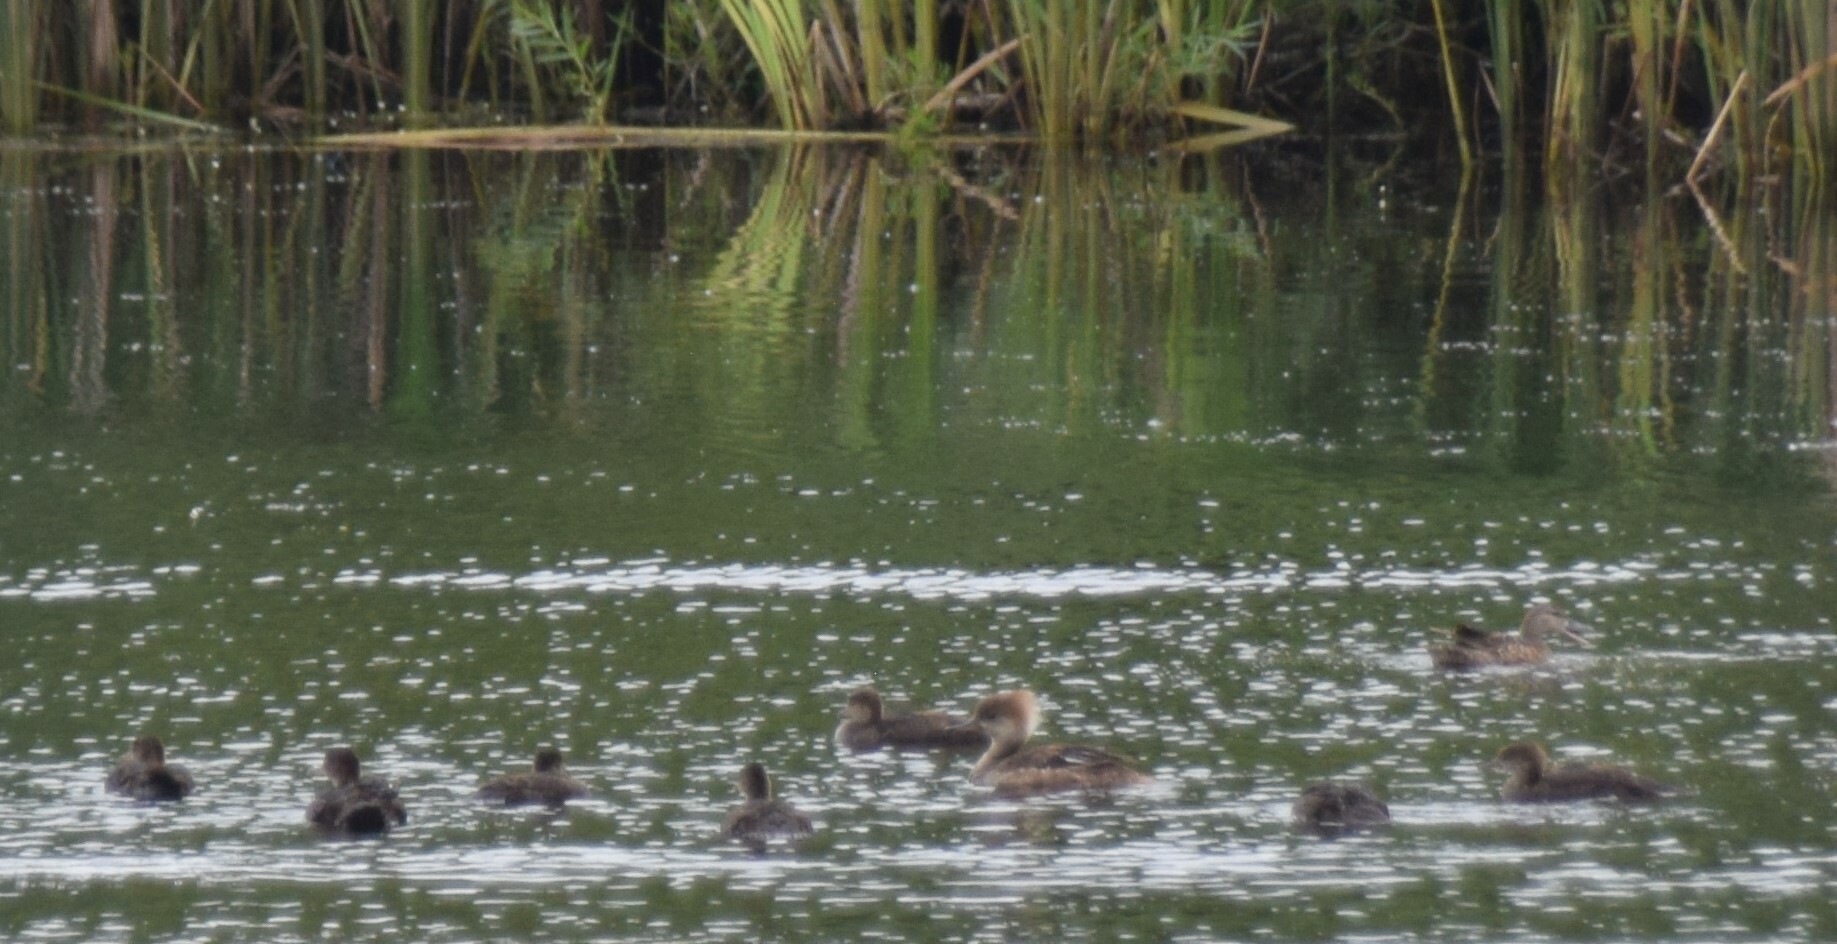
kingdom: Animalia
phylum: Chordata
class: Aves
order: Anseriformes
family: Anatidae
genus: Lophodytes
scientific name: Lophodytes cucullatus
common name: Hooded merganser
